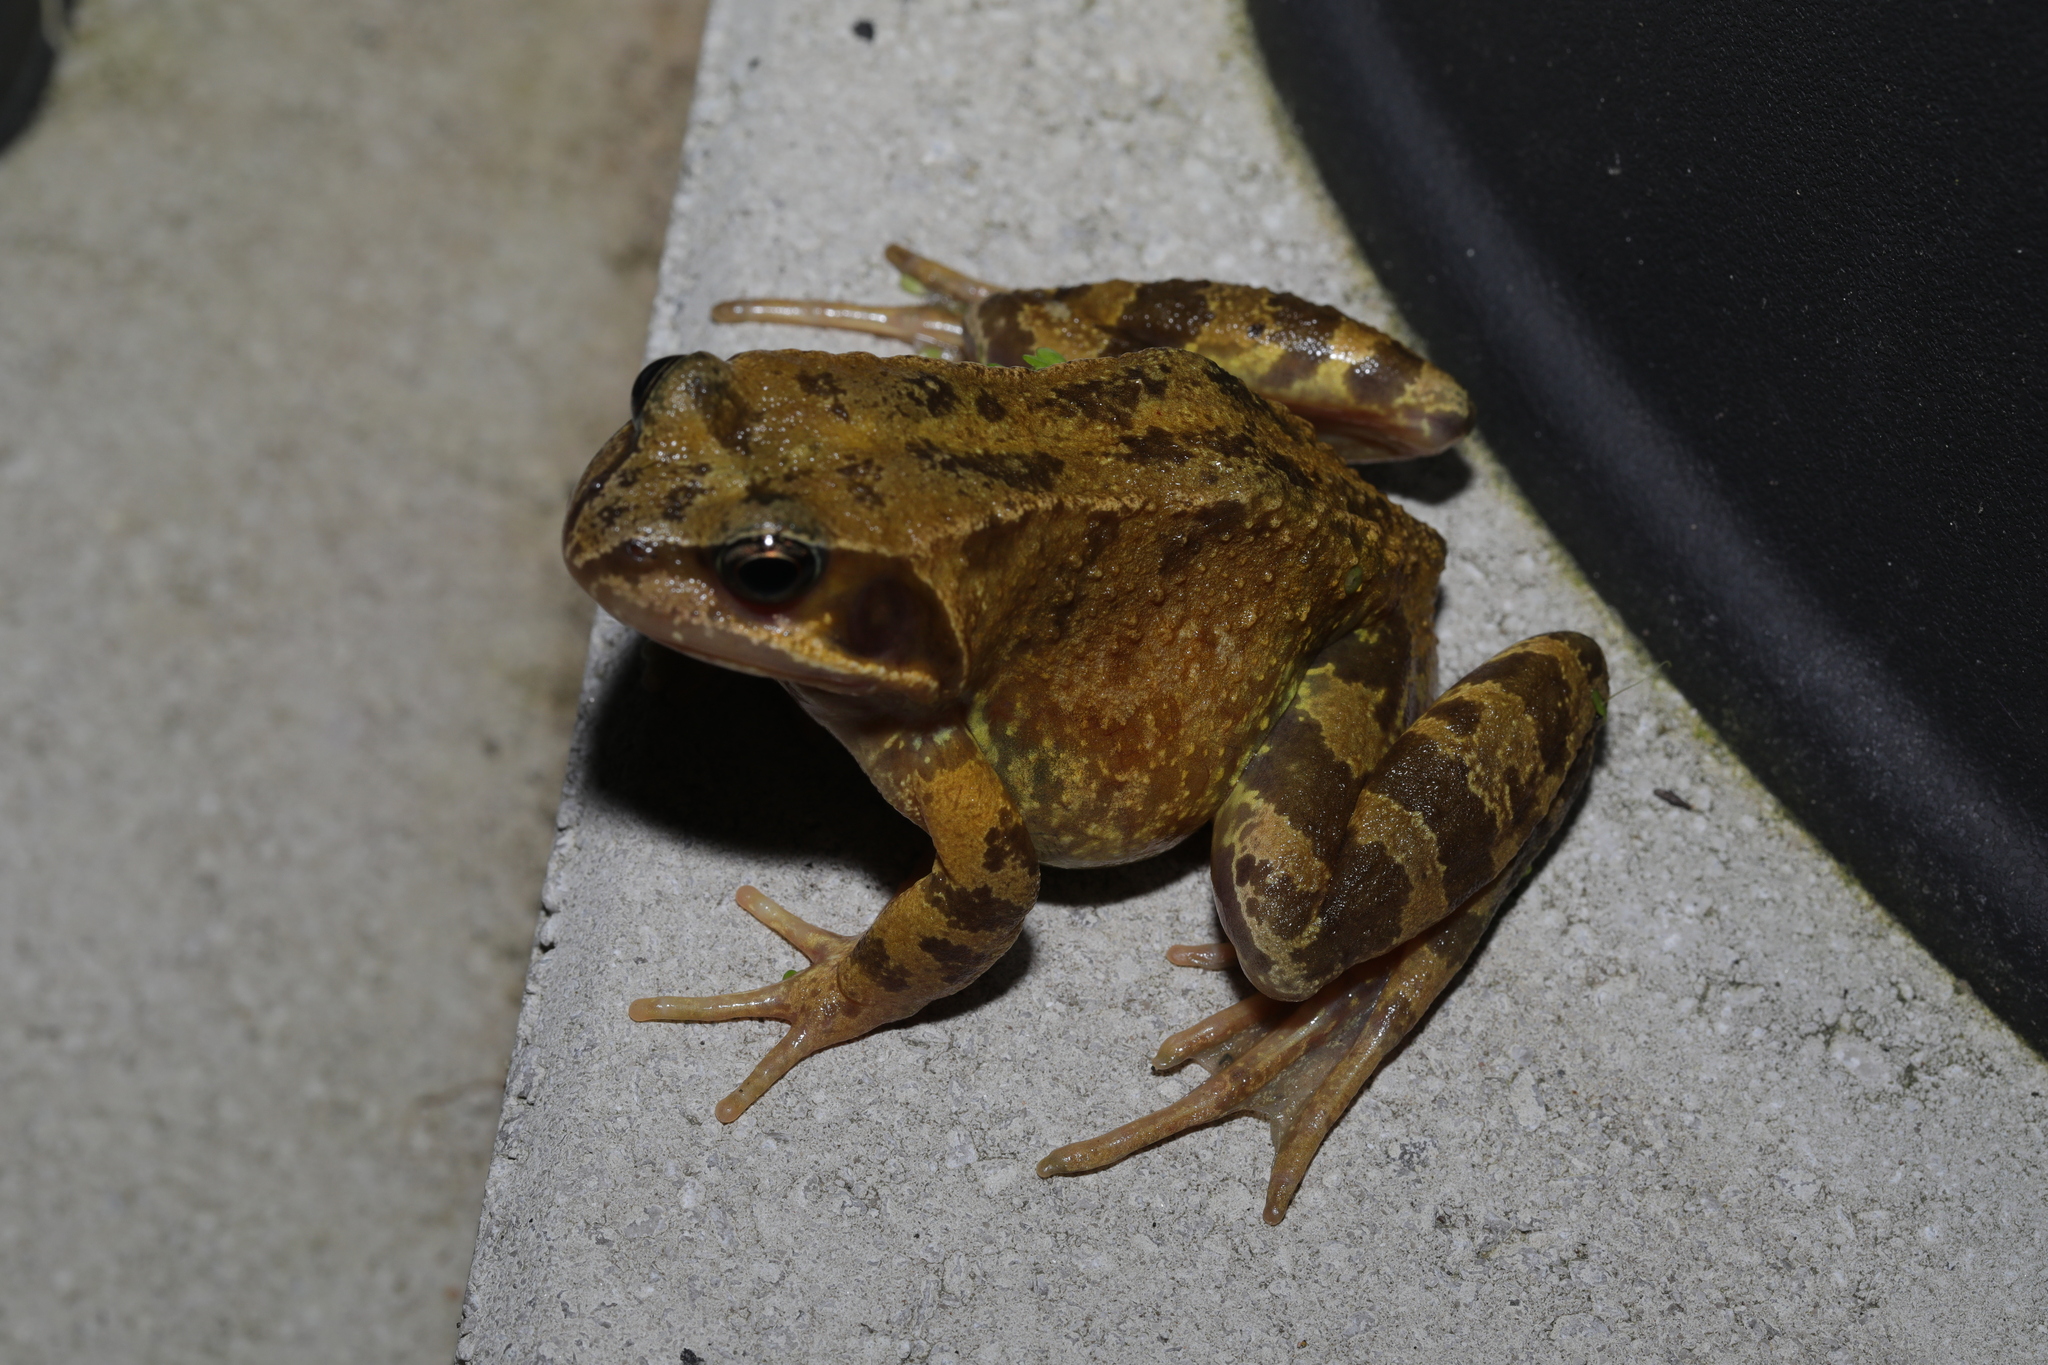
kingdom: Animalia
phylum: Chordata
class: Amphibia
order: Anura
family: Ranidae
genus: Rana
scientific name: Rana temporaria
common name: Common frog
